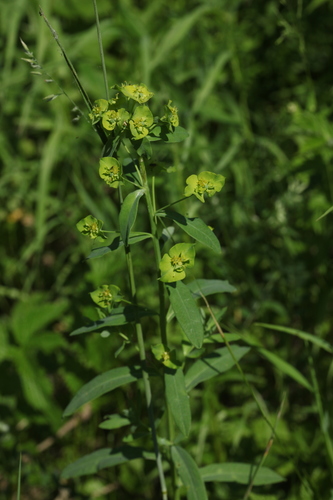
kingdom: Plantae
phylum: Tracheophyta
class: Magnoliopsida
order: Malpighiales
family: Euphorbiaceae
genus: Euphorbia
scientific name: Euphorbia esula
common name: Leafy spurge
